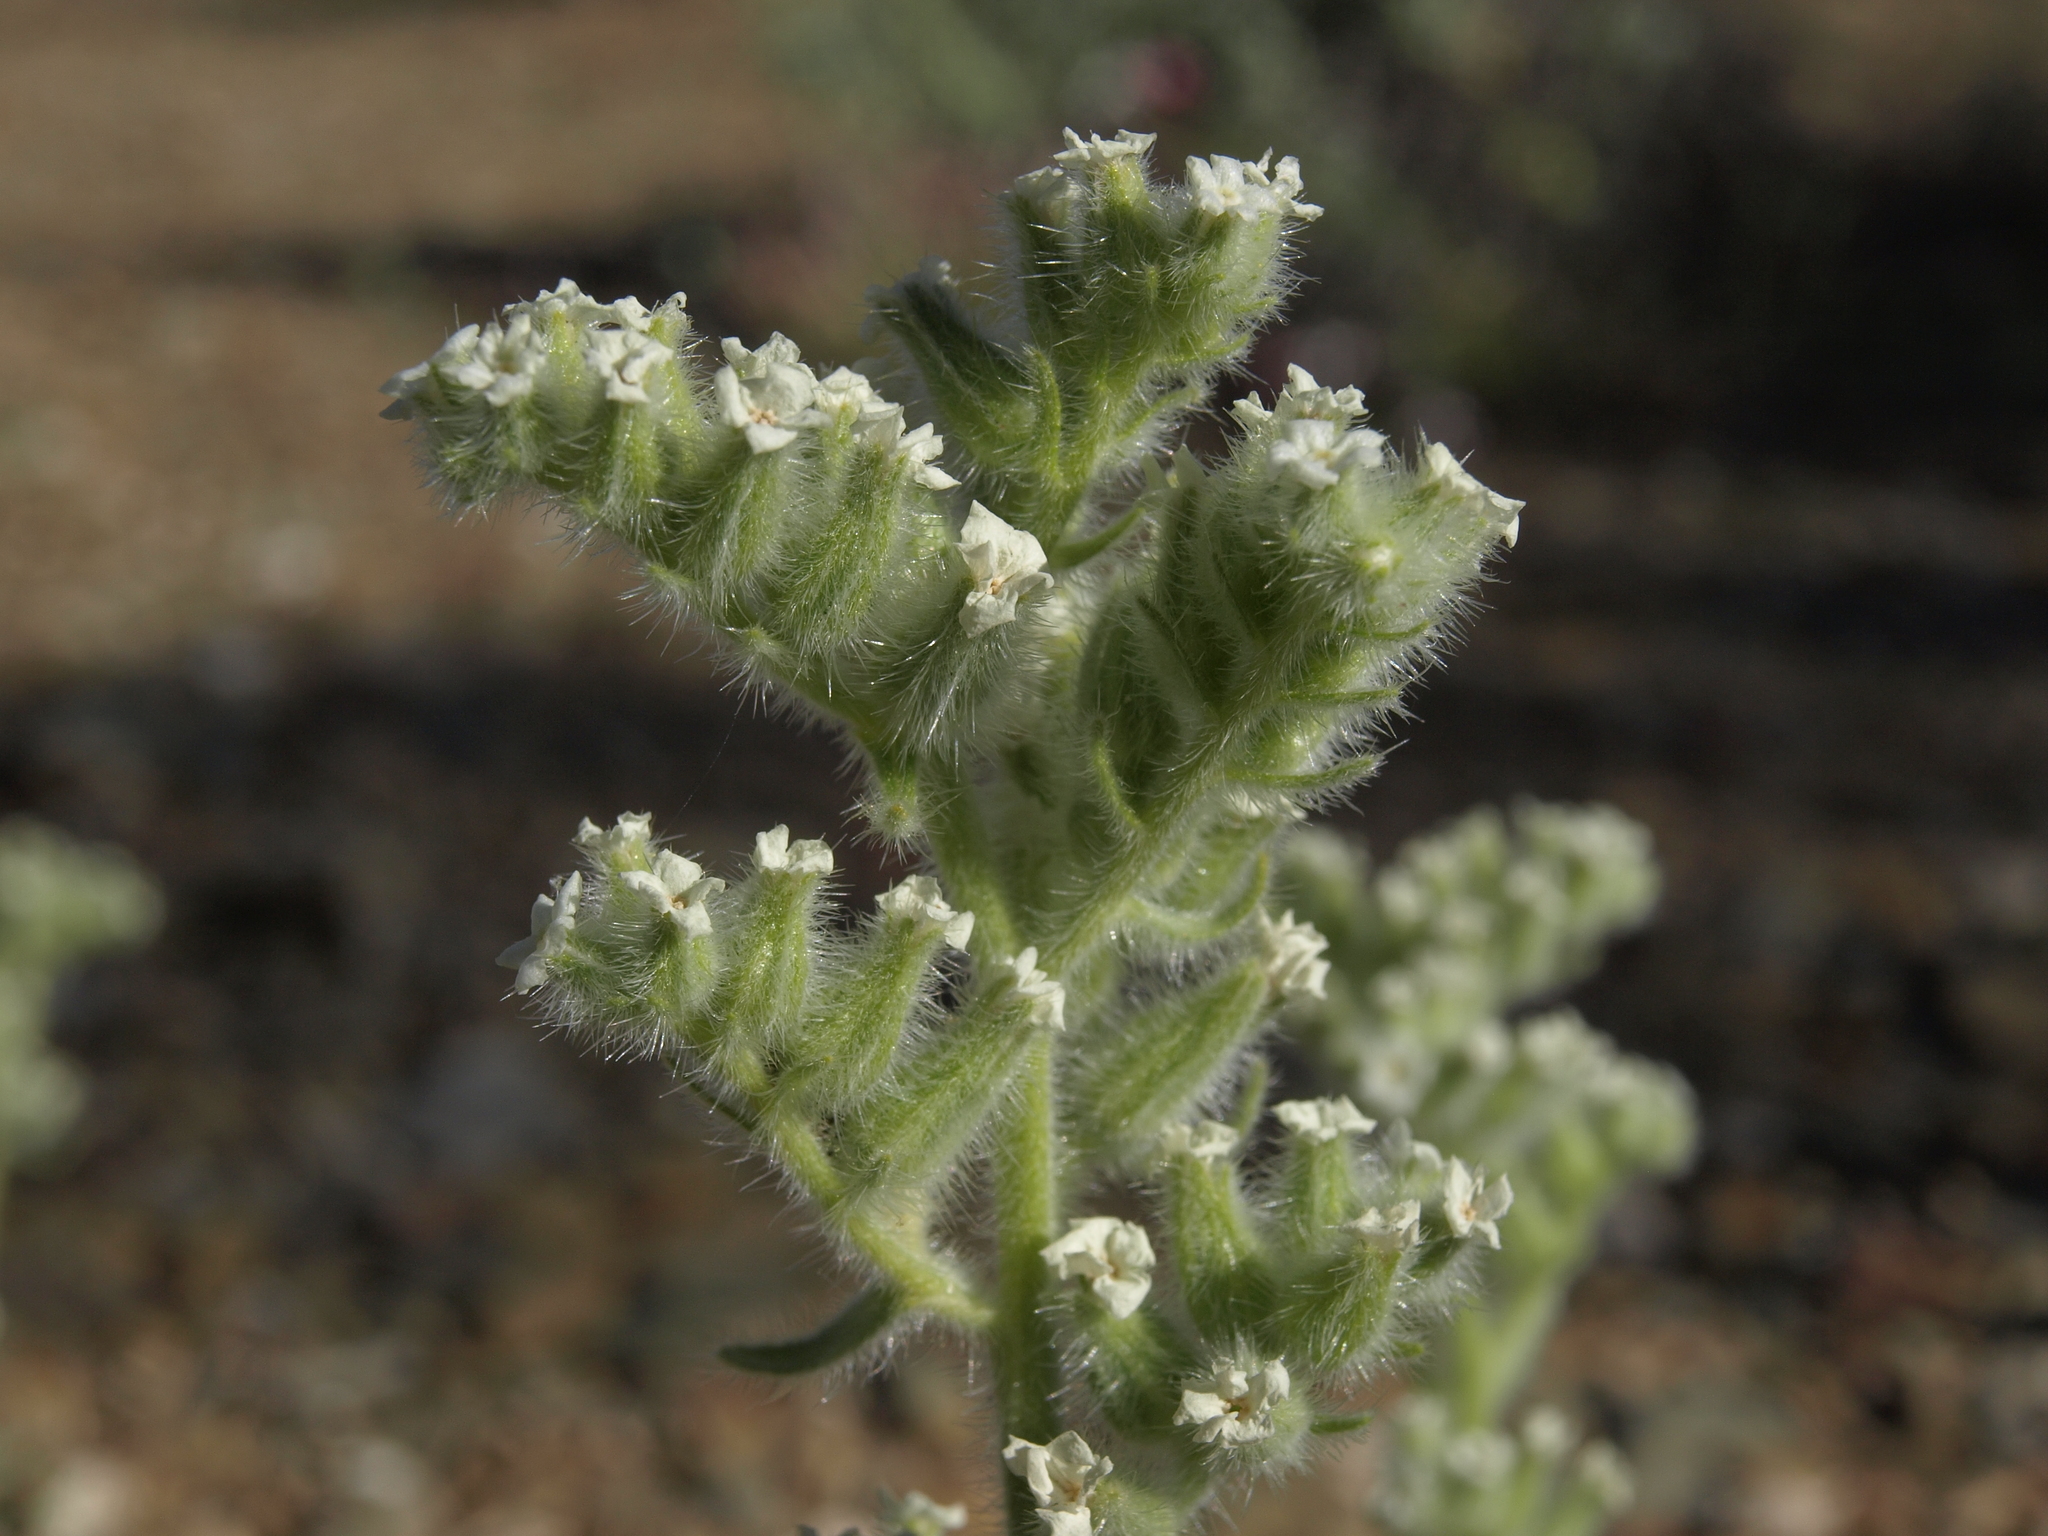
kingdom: Plantae
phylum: Tracheophyta
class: Magnoliopsida
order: Boraginales
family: Boraginaceae
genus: Oreocarya
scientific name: Oreocarya hoffmannii
